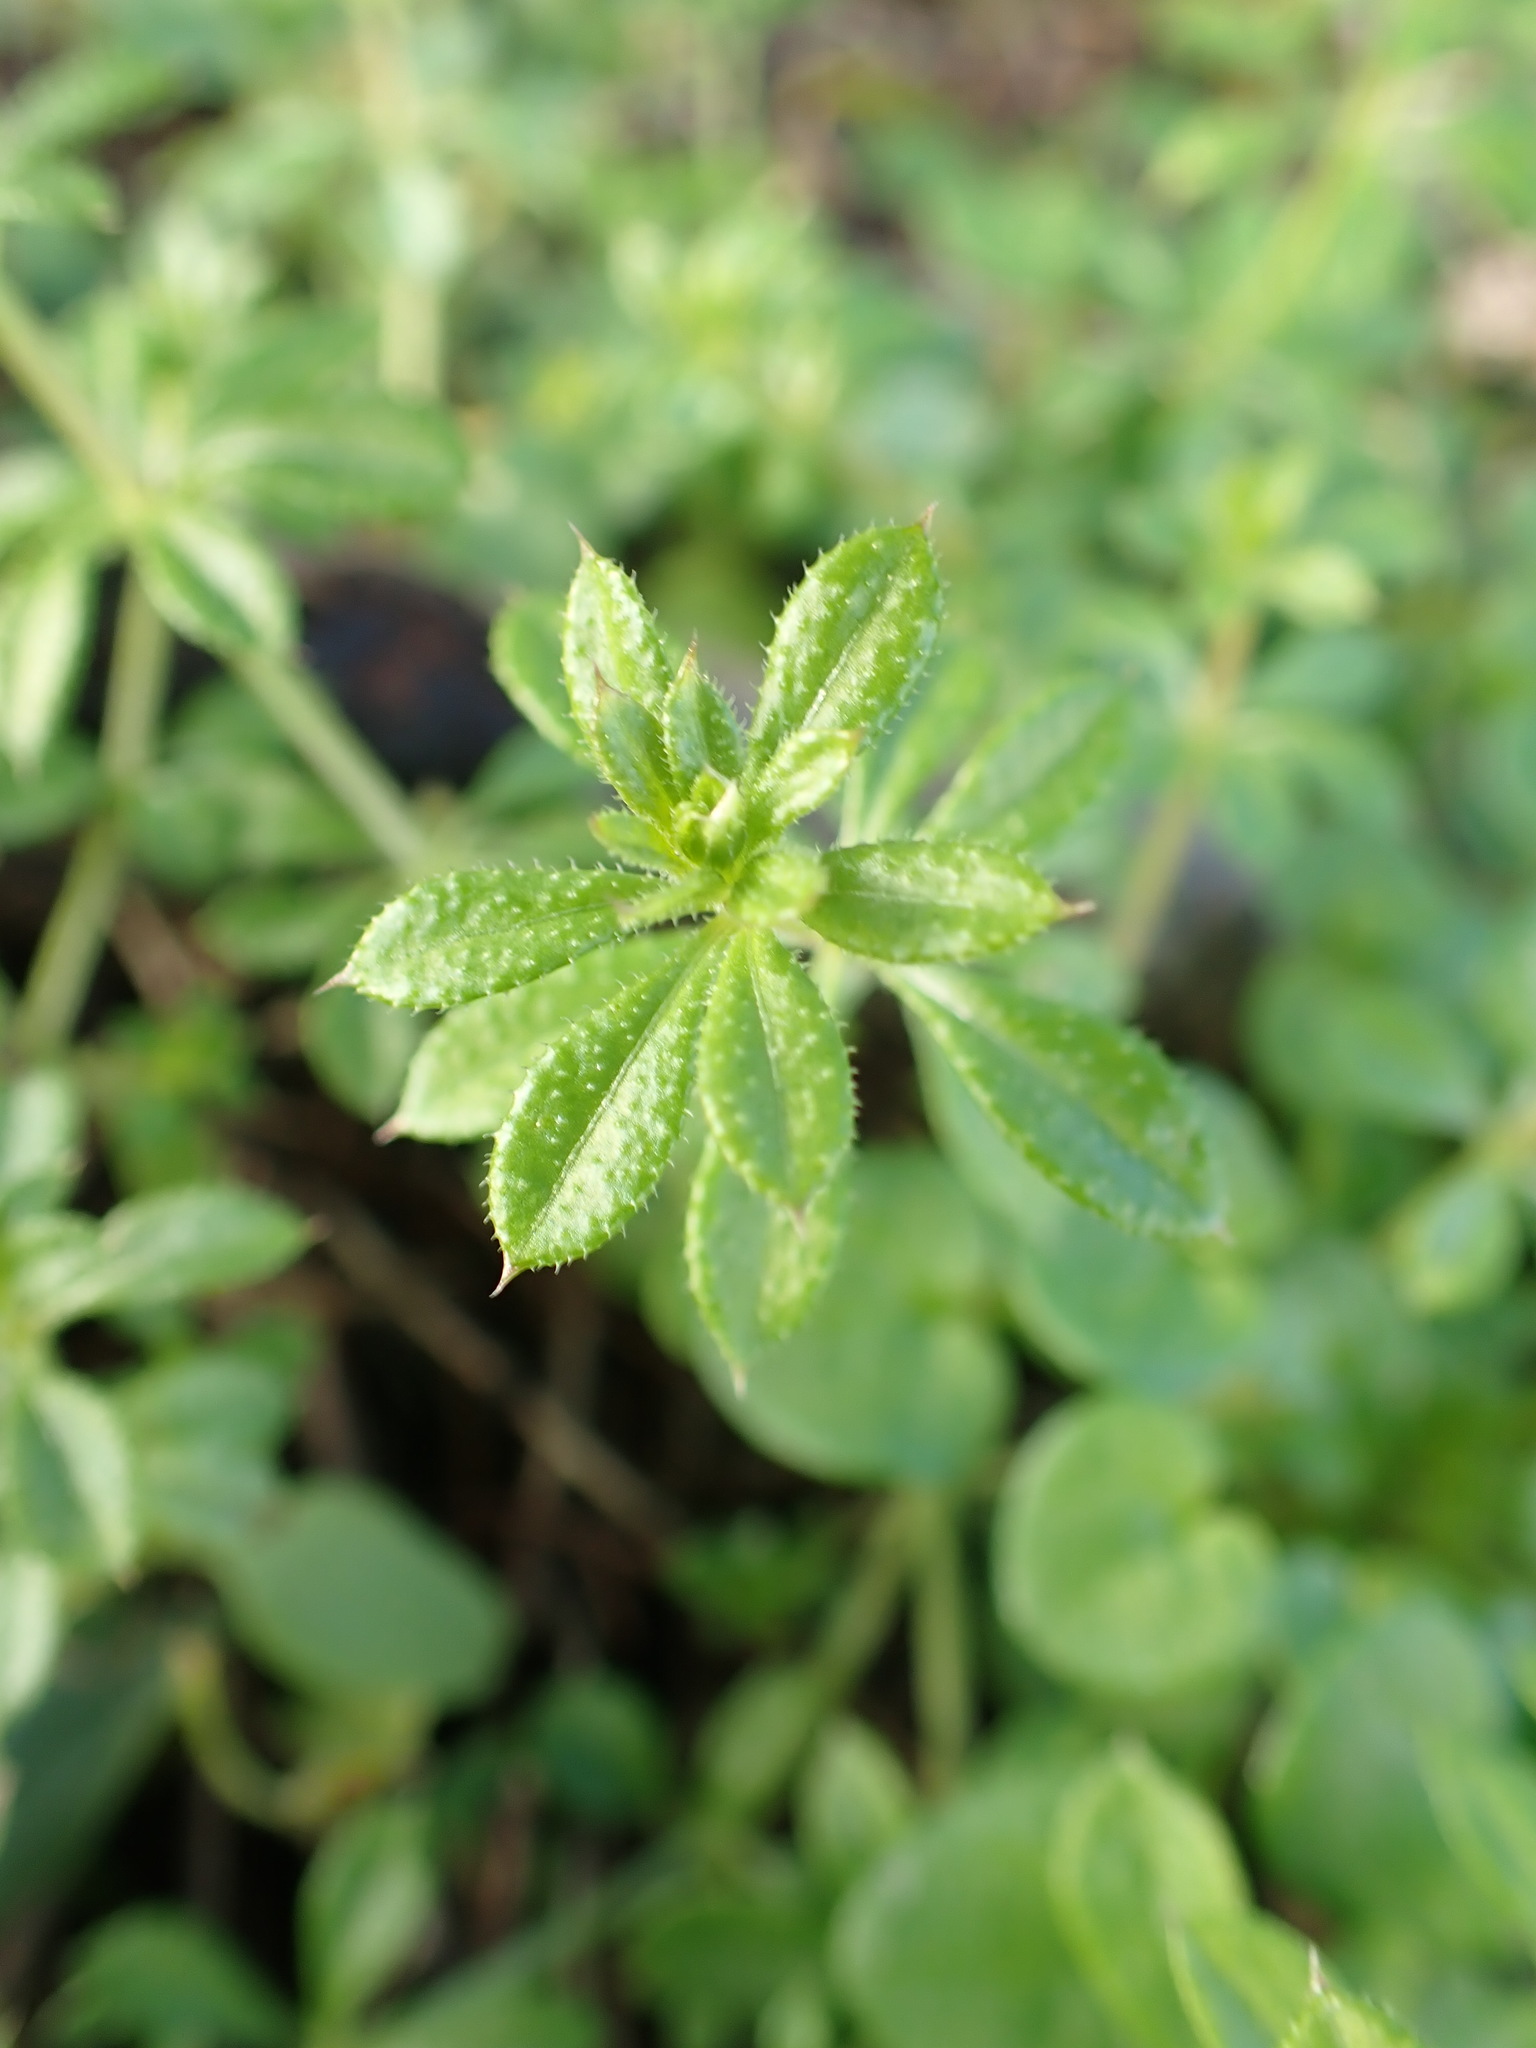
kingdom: Plantae
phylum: Tracheophyta
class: Magnoliopsida
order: Gentianales
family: Rubiaceae
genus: Galium
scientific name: Galium aparine
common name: Cleavers
